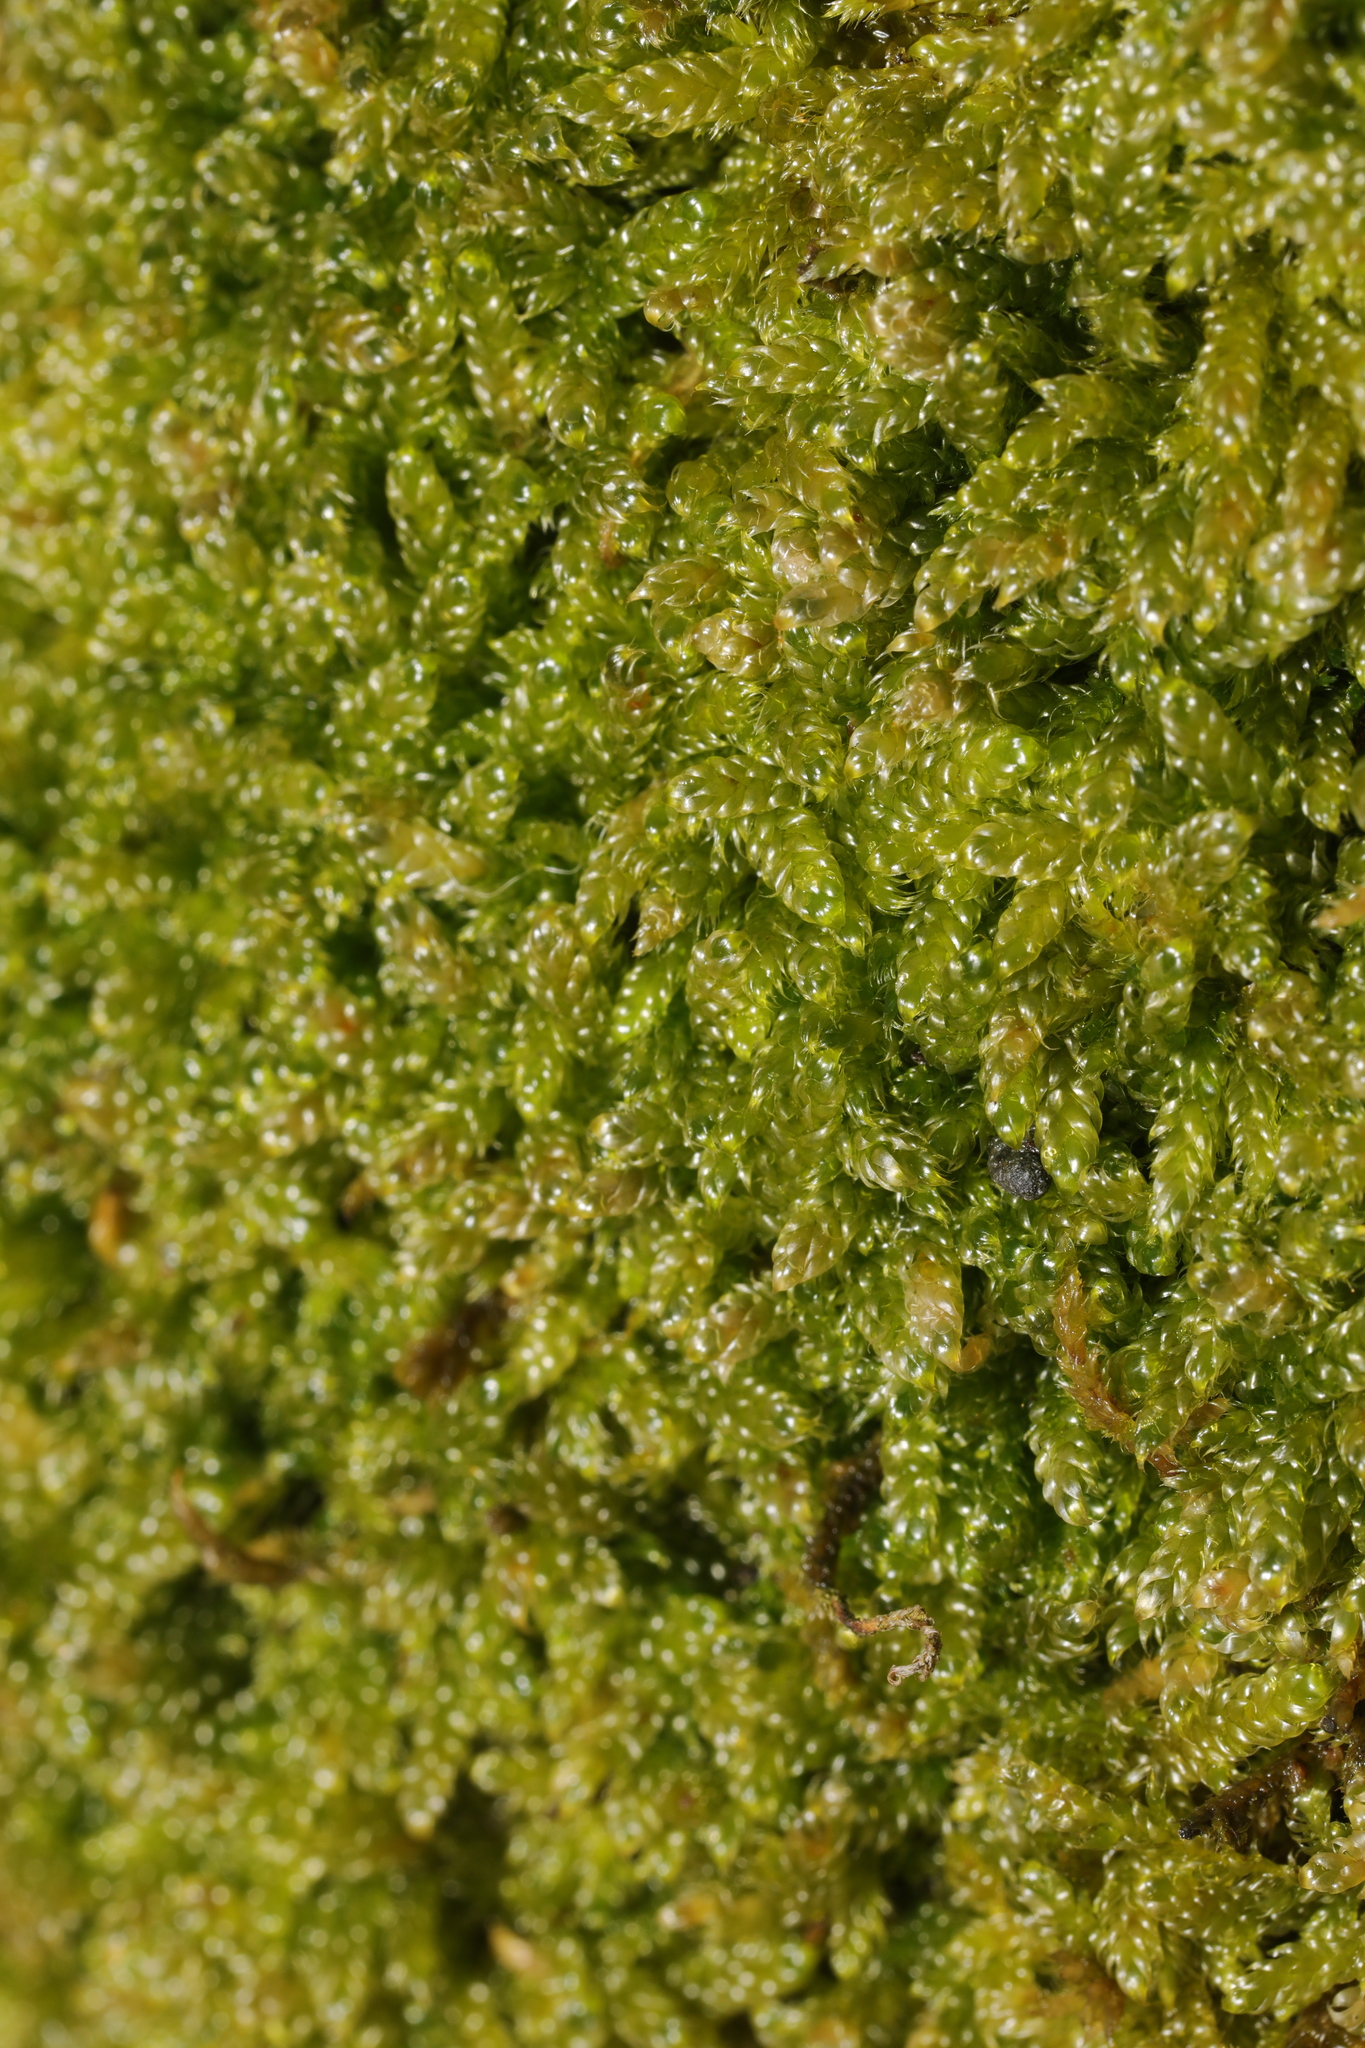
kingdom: Plantae
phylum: Bryophyta
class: Bryopsida
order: Hypnales
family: Hypnaceae
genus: Hypnum
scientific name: Hypnum cupressiforme
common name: Cypress-leaved plait-moss
